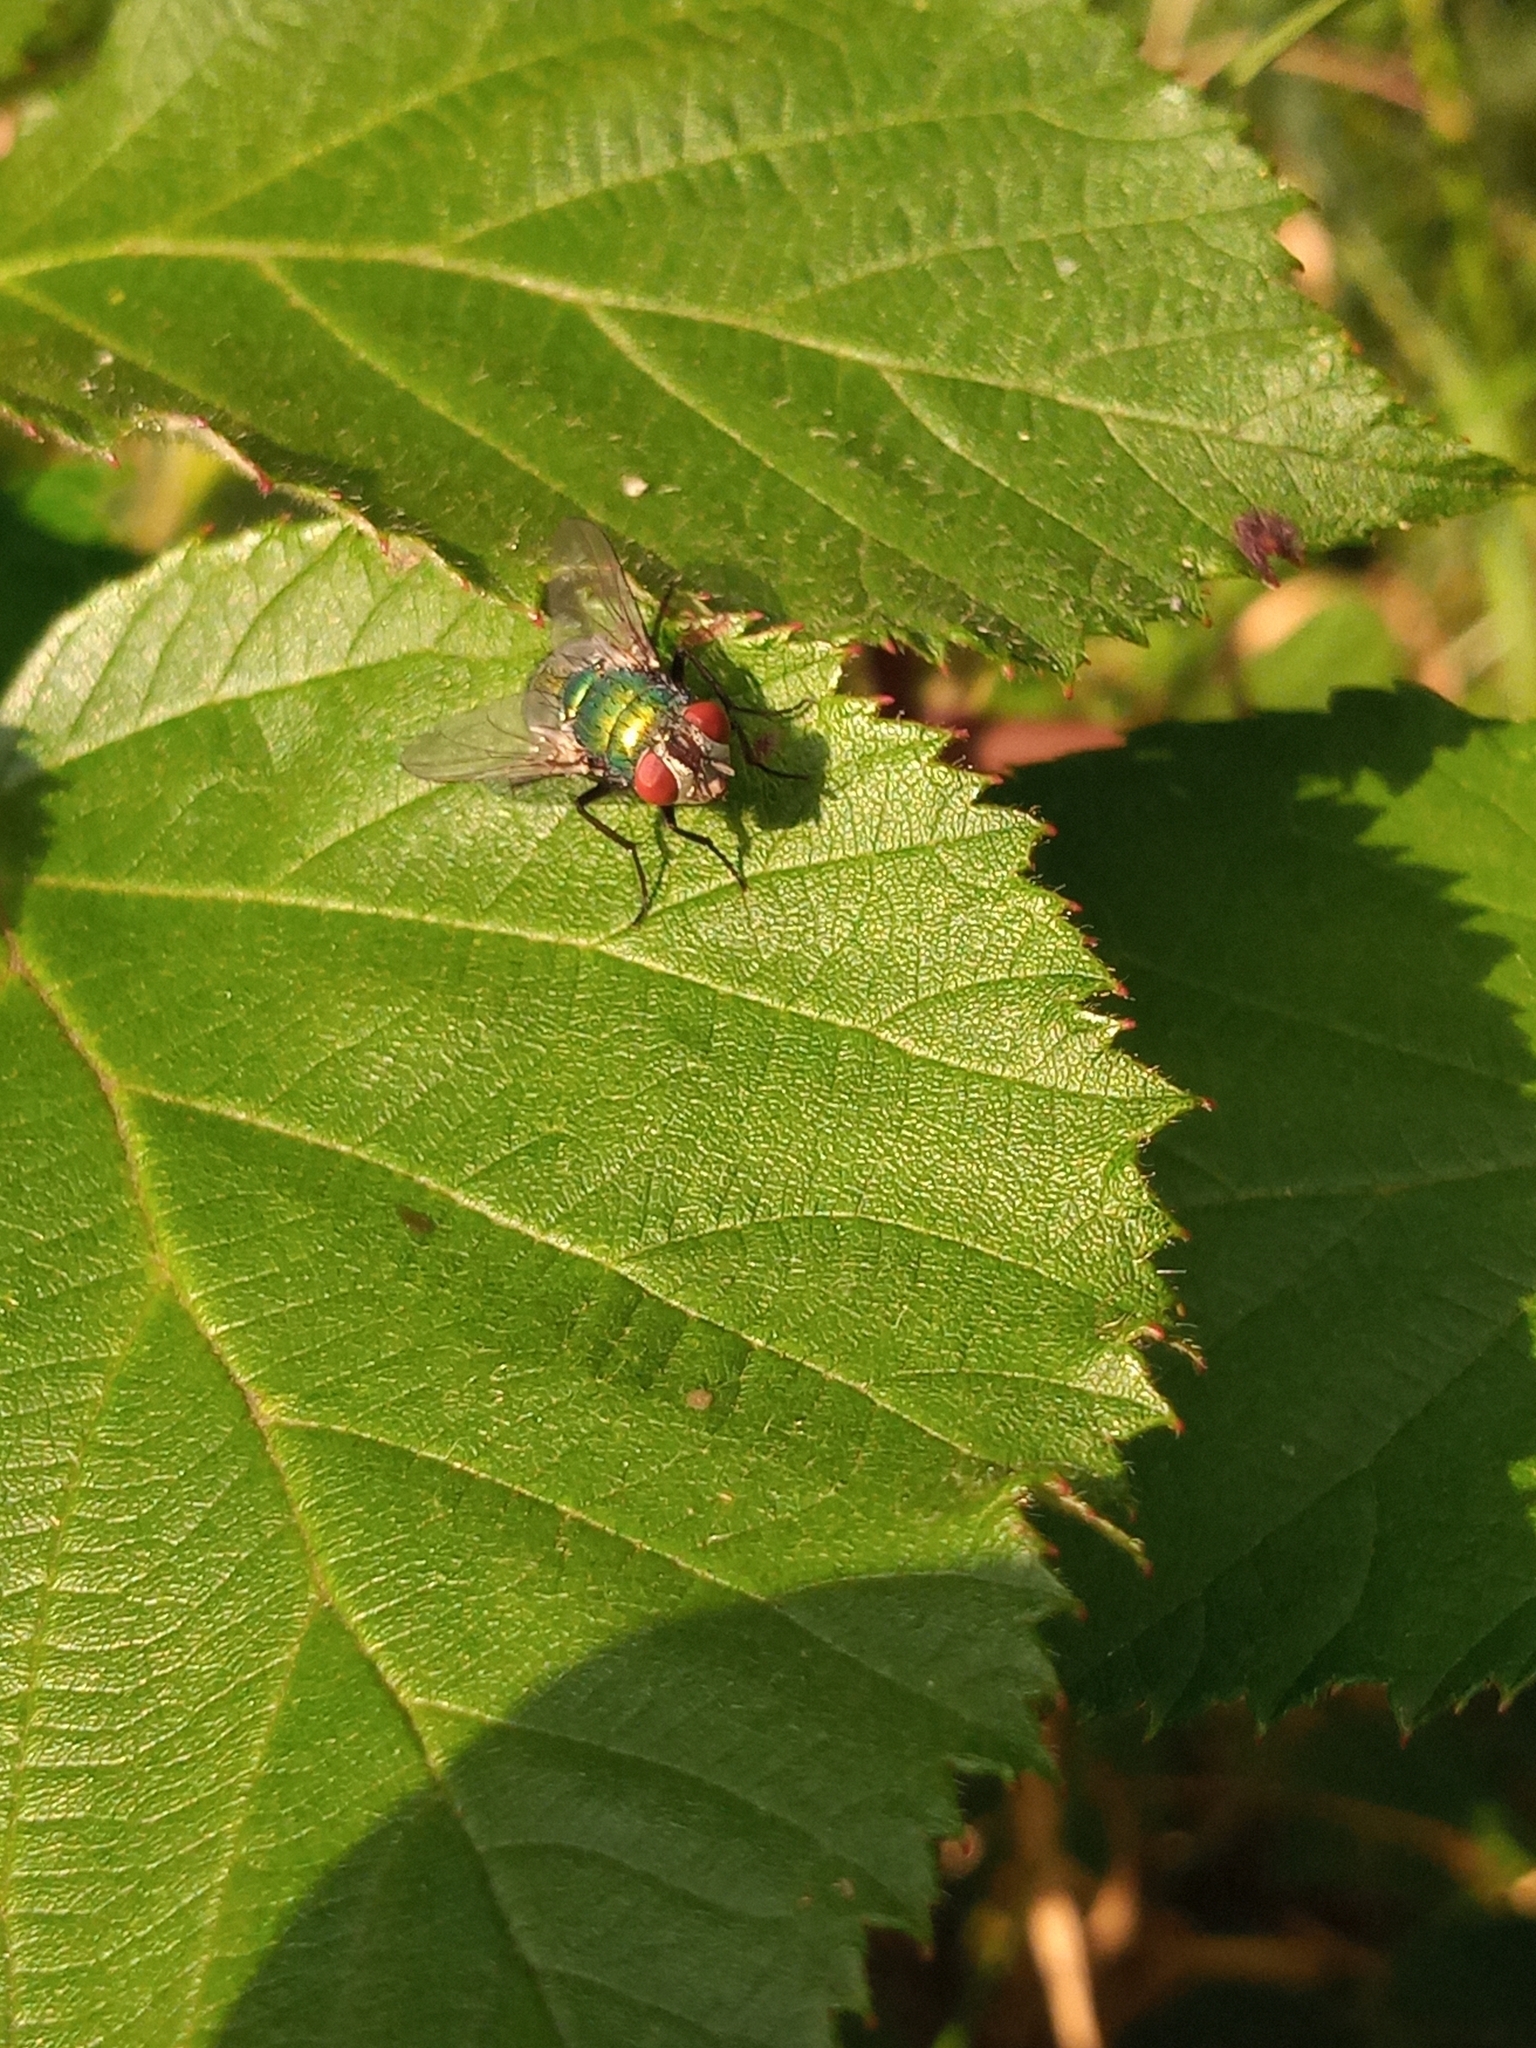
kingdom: Animalia
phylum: Arthropoda
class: Insecta
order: Diptera
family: Calliphoridae
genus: Lucilia
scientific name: Lucilia
